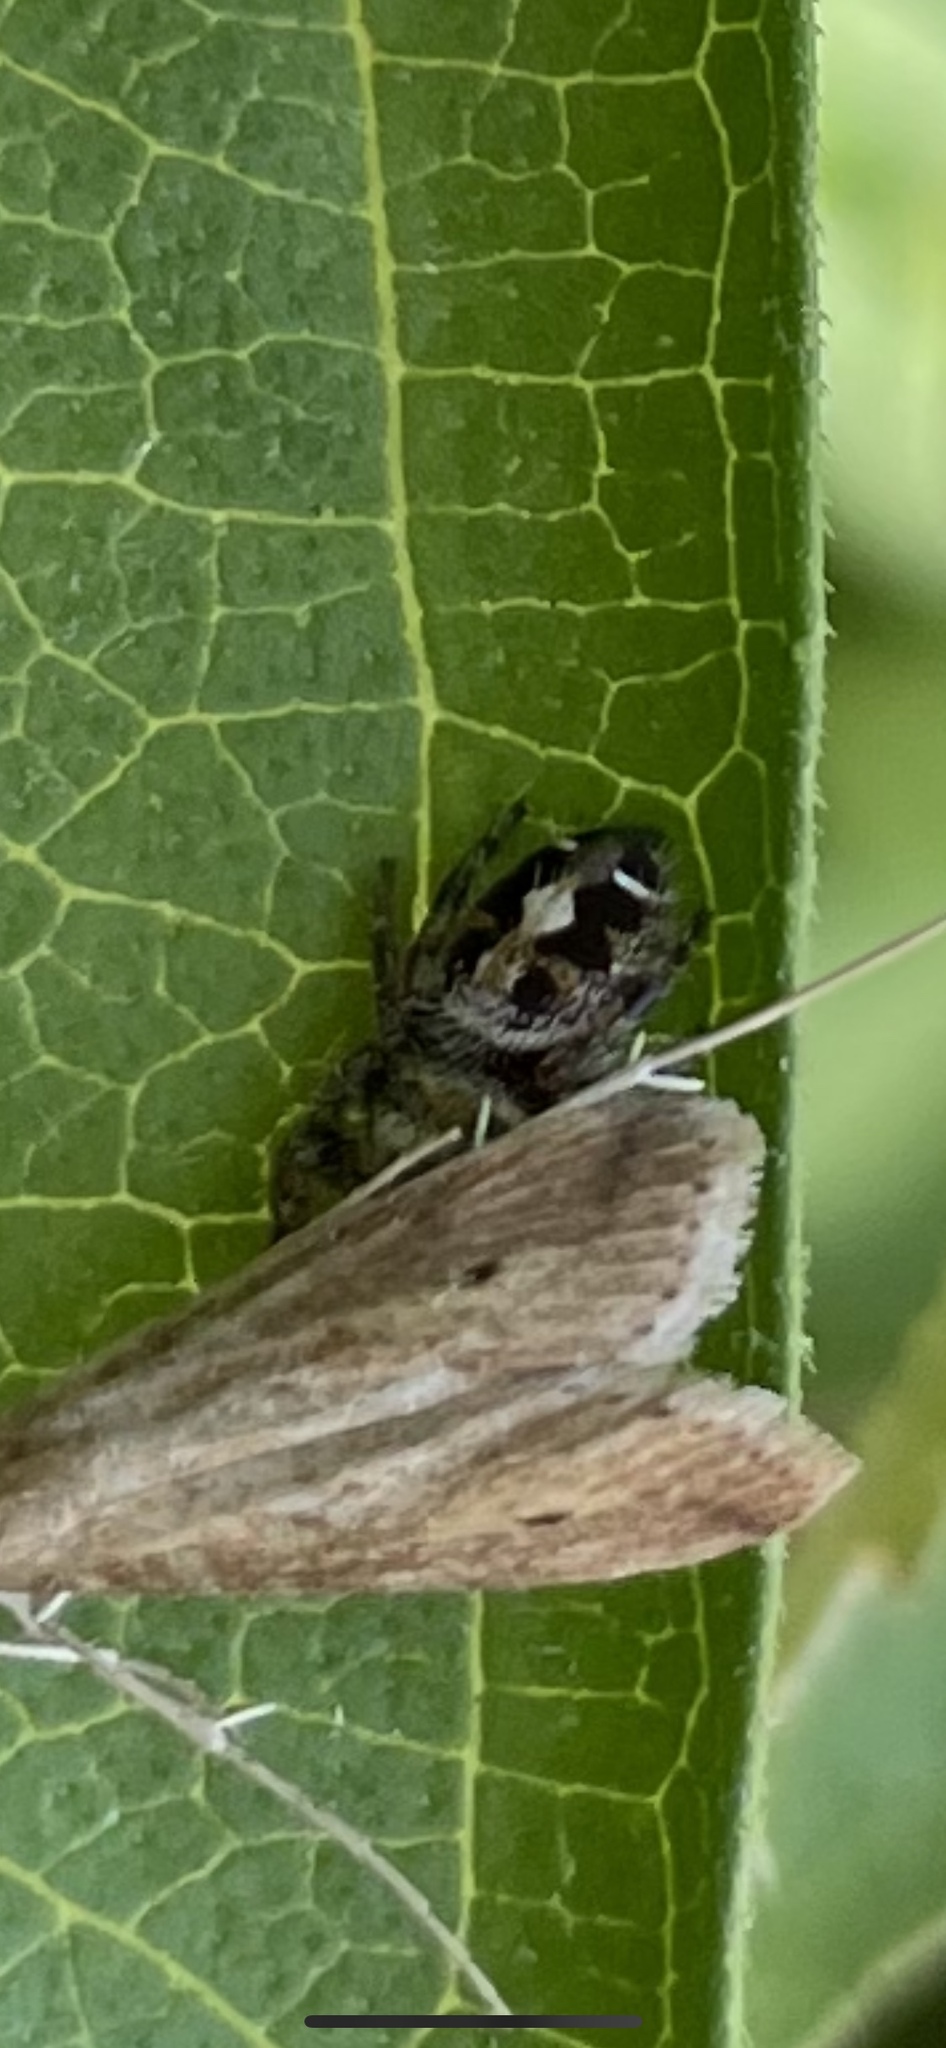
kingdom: Animalia
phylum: Arthropoda
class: Arachnida
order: Araneae
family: Salticidae
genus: Phidippus
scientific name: Phidippus audax
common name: Bold jumper
